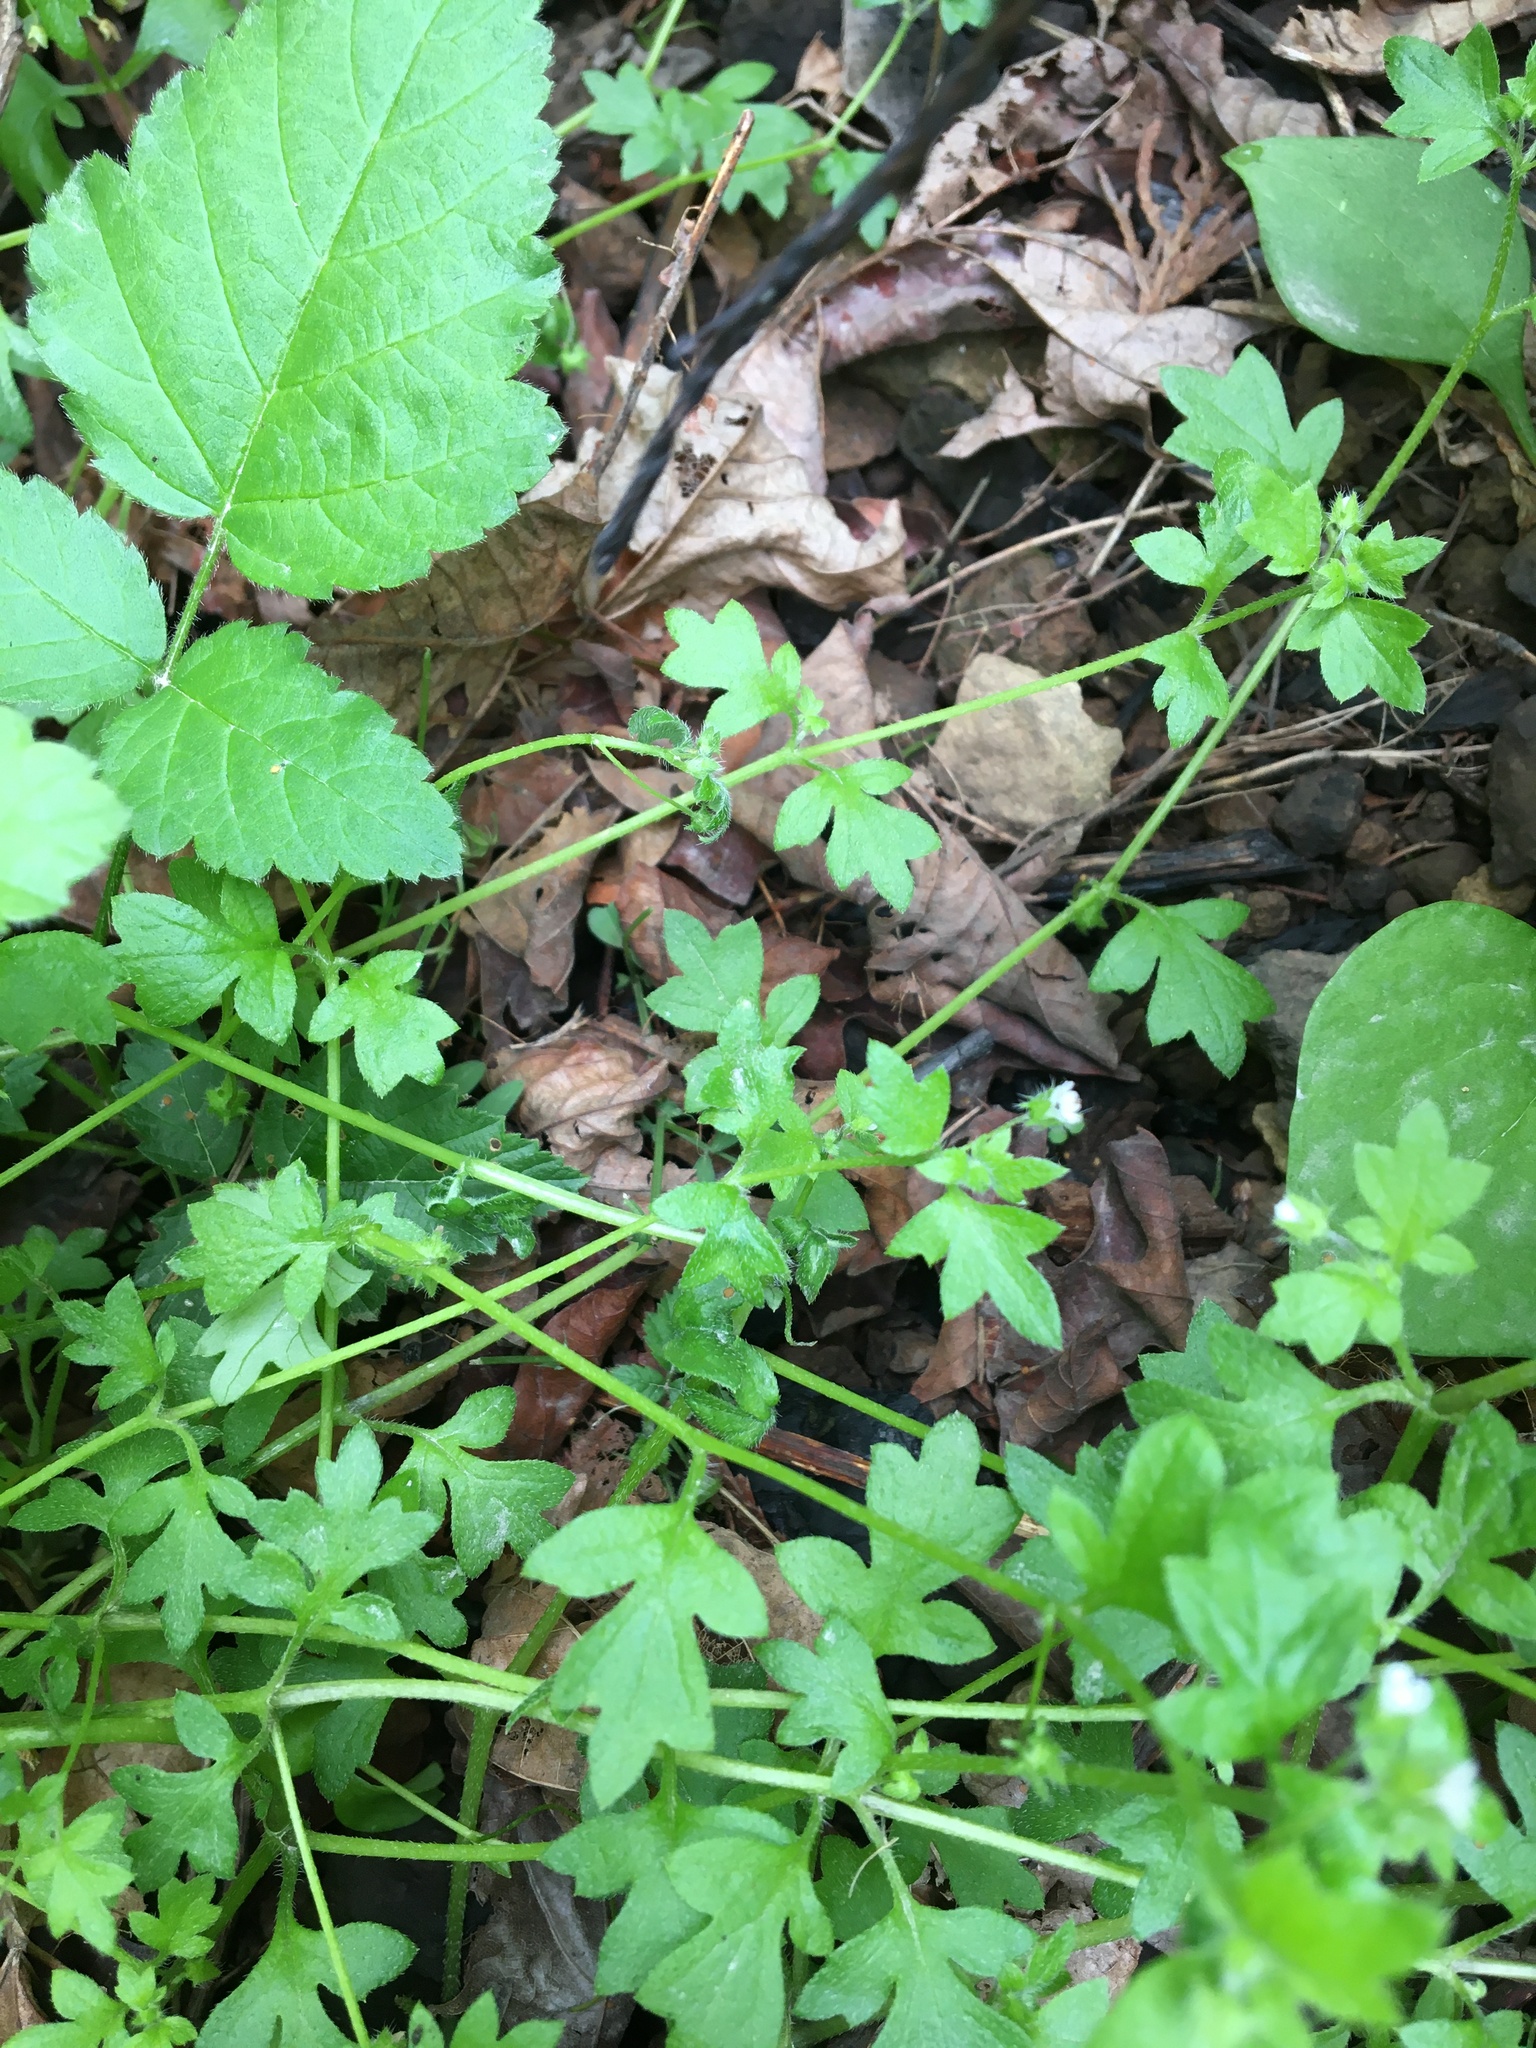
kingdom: Plantae
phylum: Tracheophyta
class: Magnoliopsida
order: Boraginales
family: Hydrophyllaceae
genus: Nemophila
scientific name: Nemophila parviflora
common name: Small-flowered baby-blue-eyes
